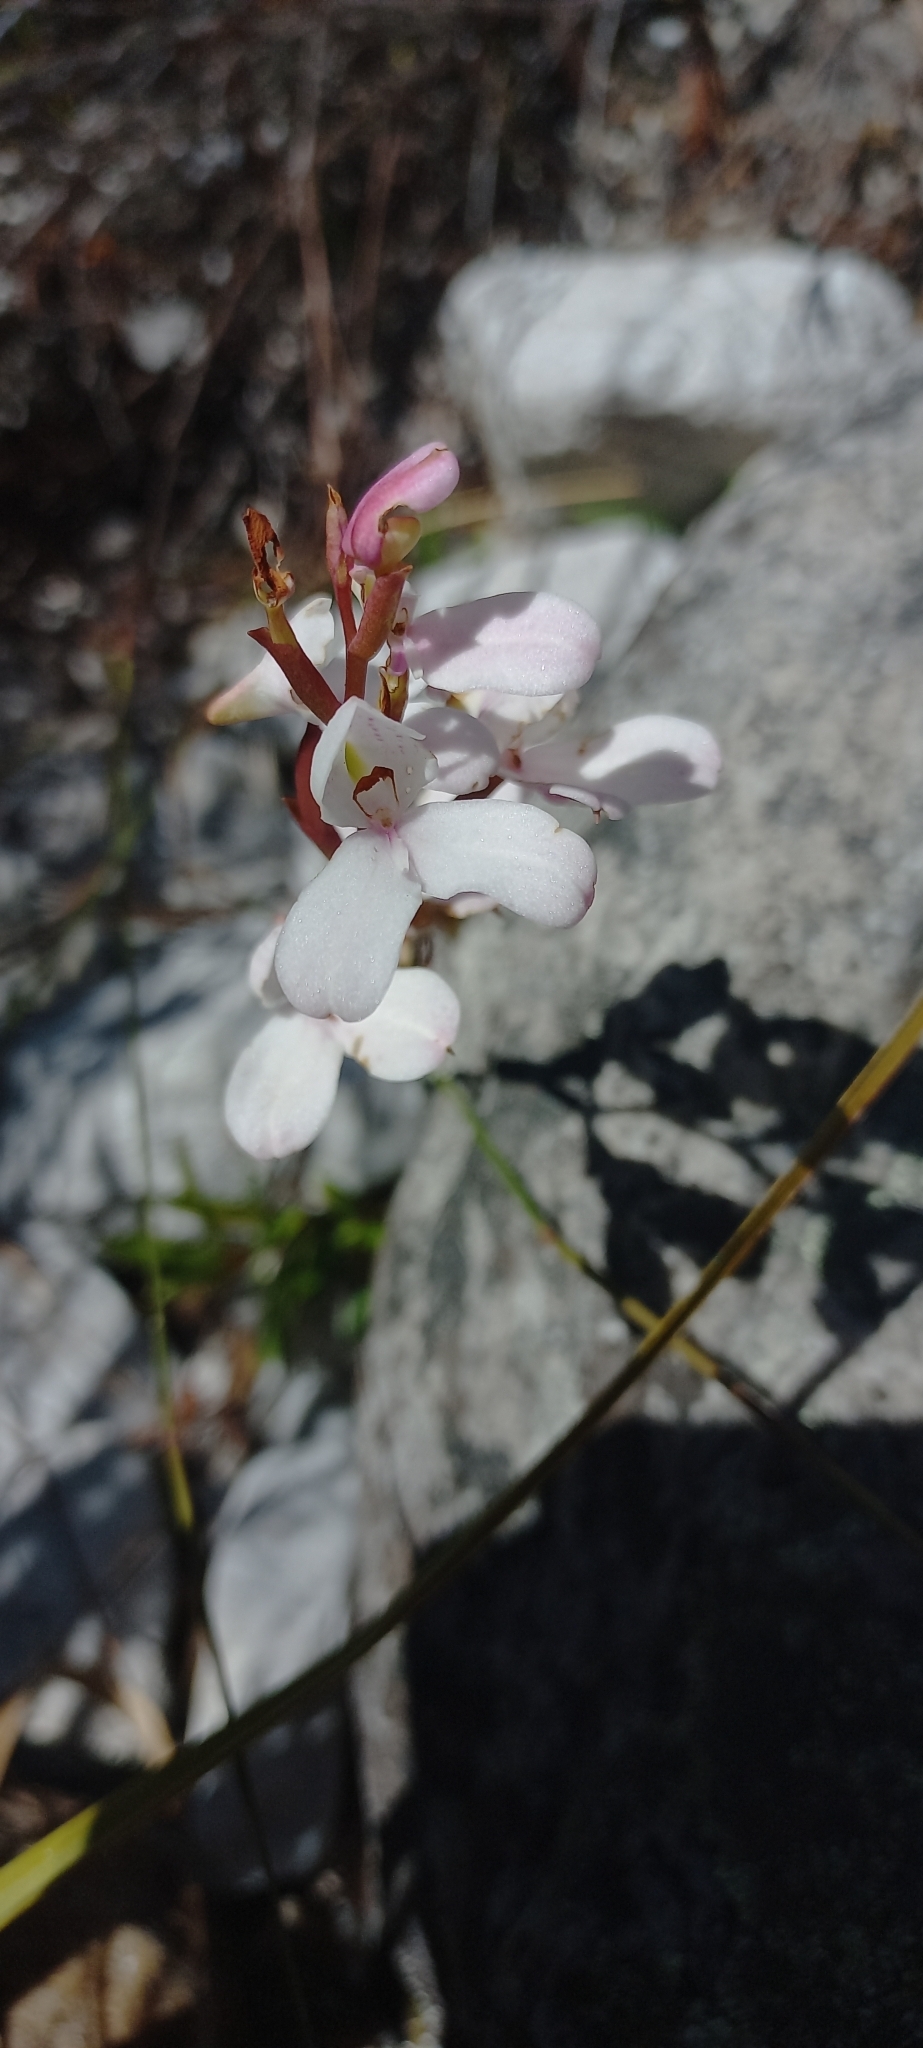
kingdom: Plantae
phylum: Tracheophyta
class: Liliopsida
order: Asparagales
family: Orchidaceae
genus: Disa
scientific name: Disa tripetaloides
